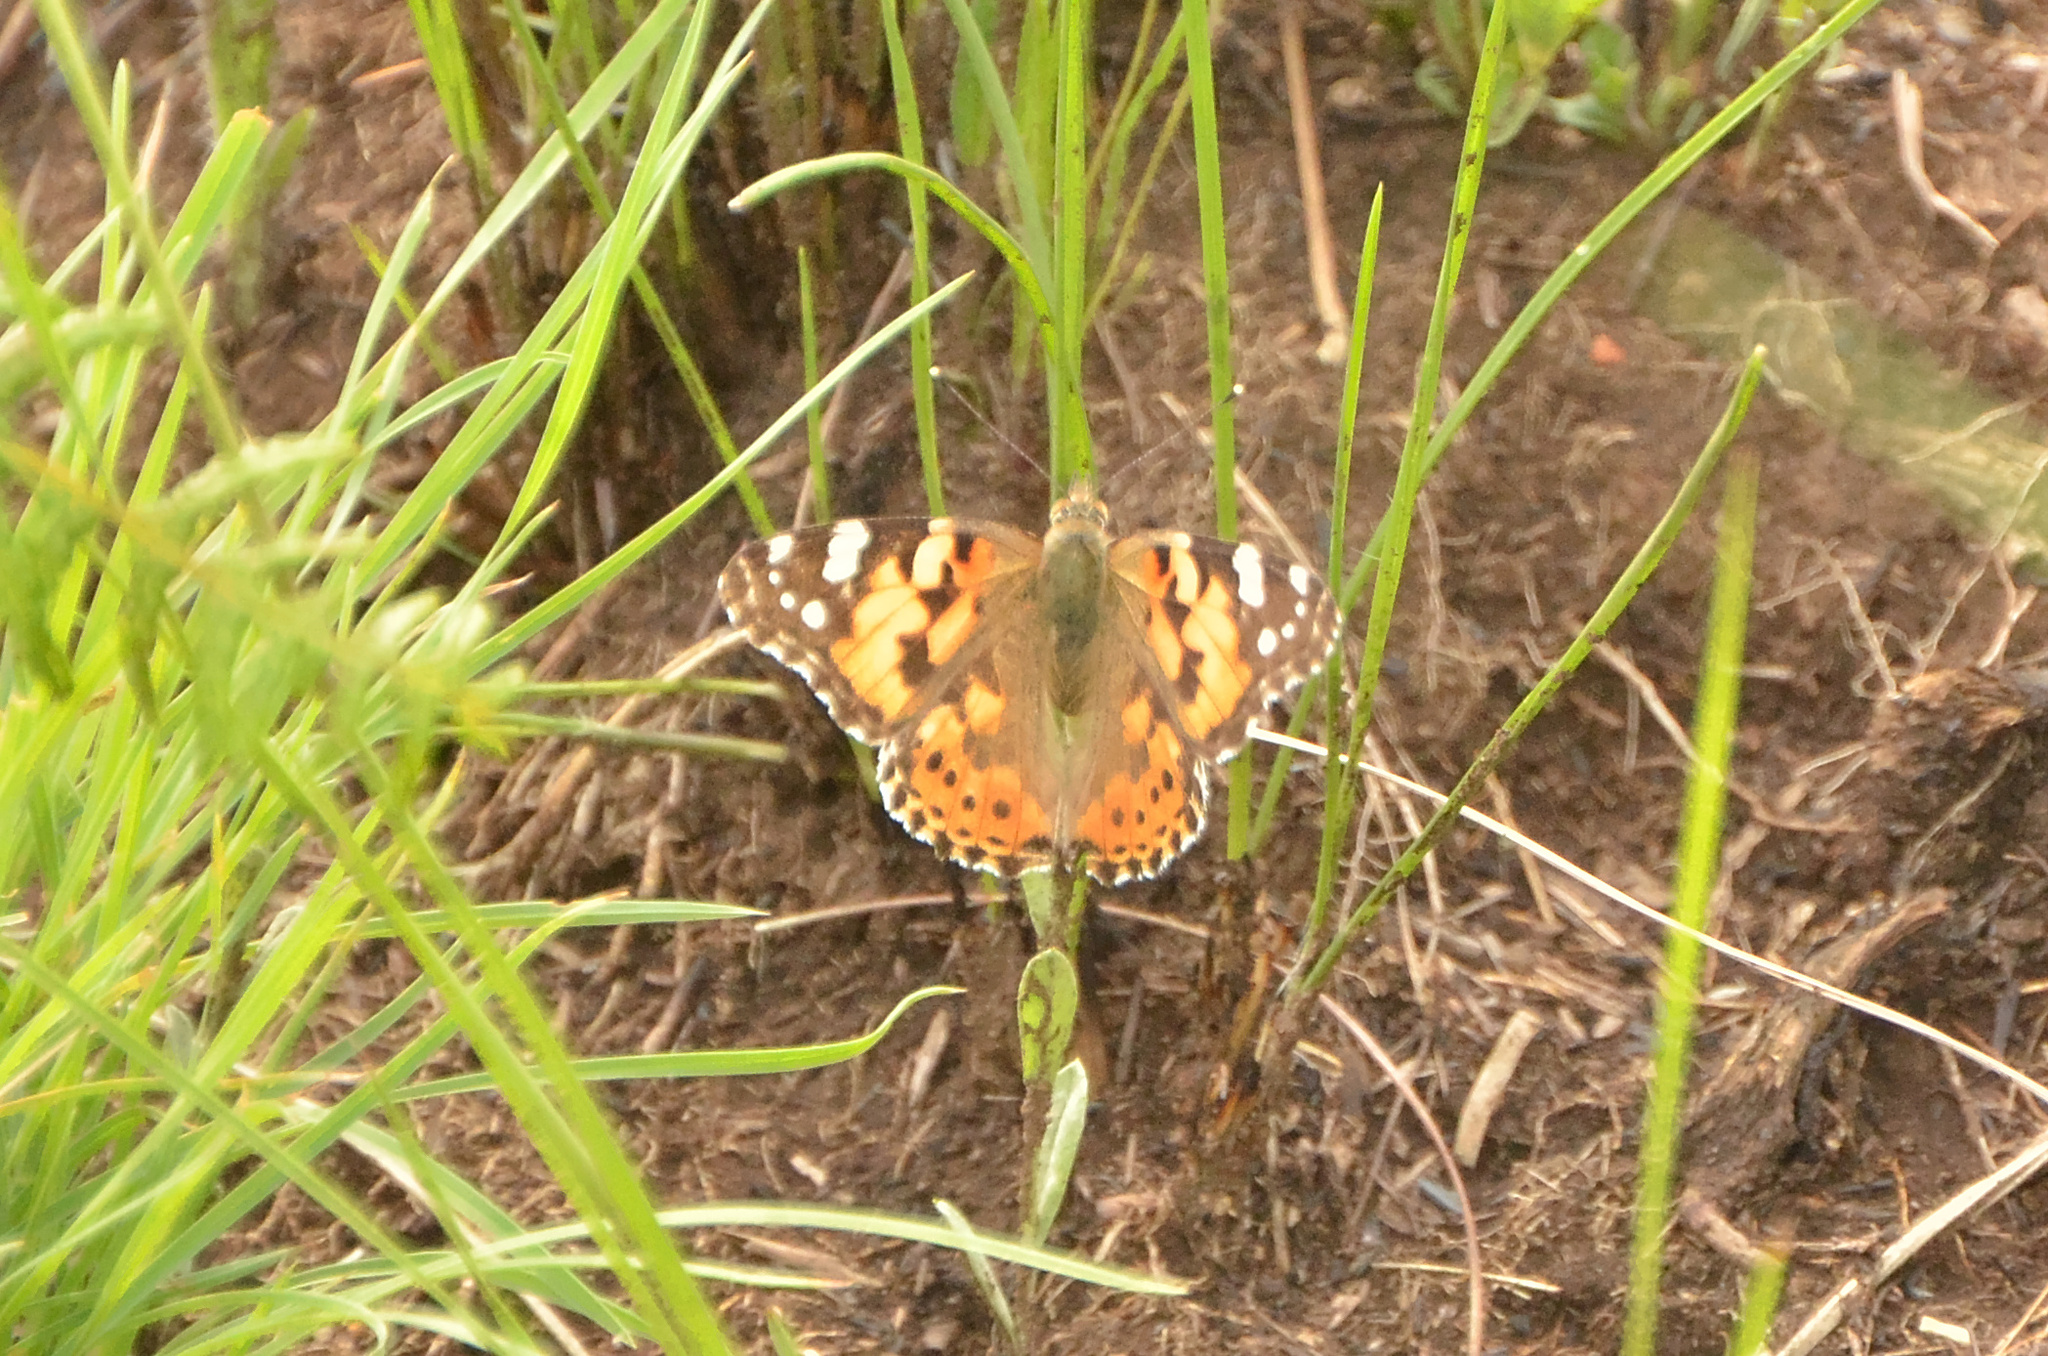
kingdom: Animalia
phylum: Arthropoda
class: Insecta
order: Lepidoptera
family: Nymphalidae
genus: Vanessa
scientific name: Vanessa cardui
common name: Painted lady
